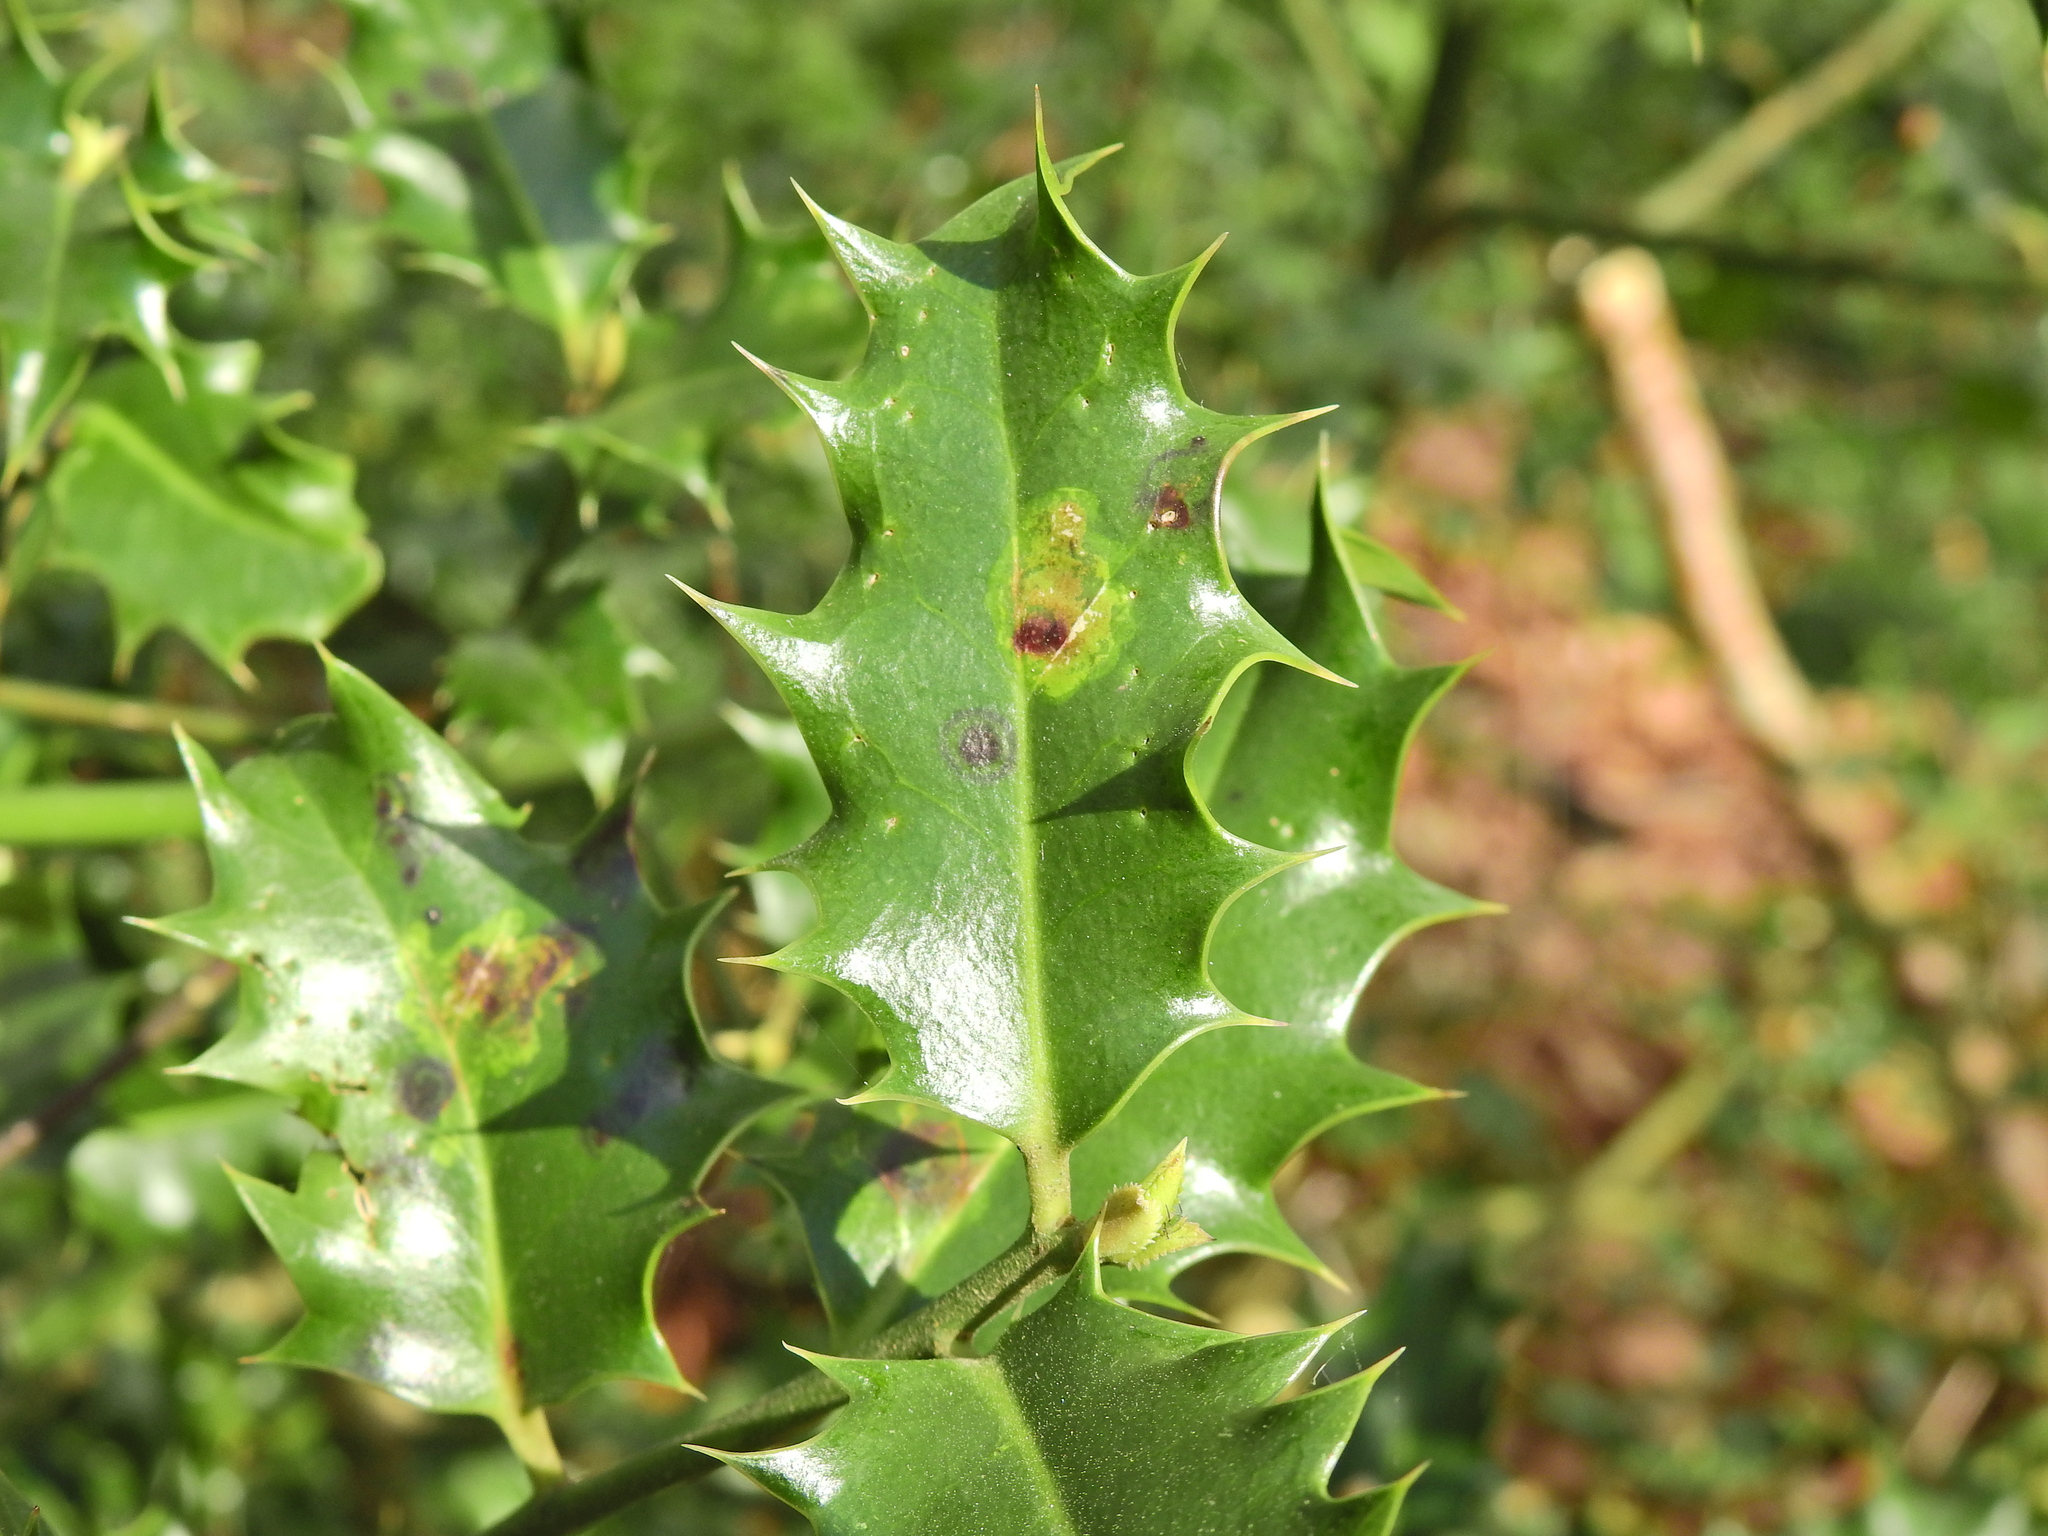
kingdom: Animalia
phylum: Arthropoda
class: Insecta
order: Diptera
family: Agromyzidae
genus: Phytomyza
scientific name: Phytomyza ilicis
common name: Holly leafminer
